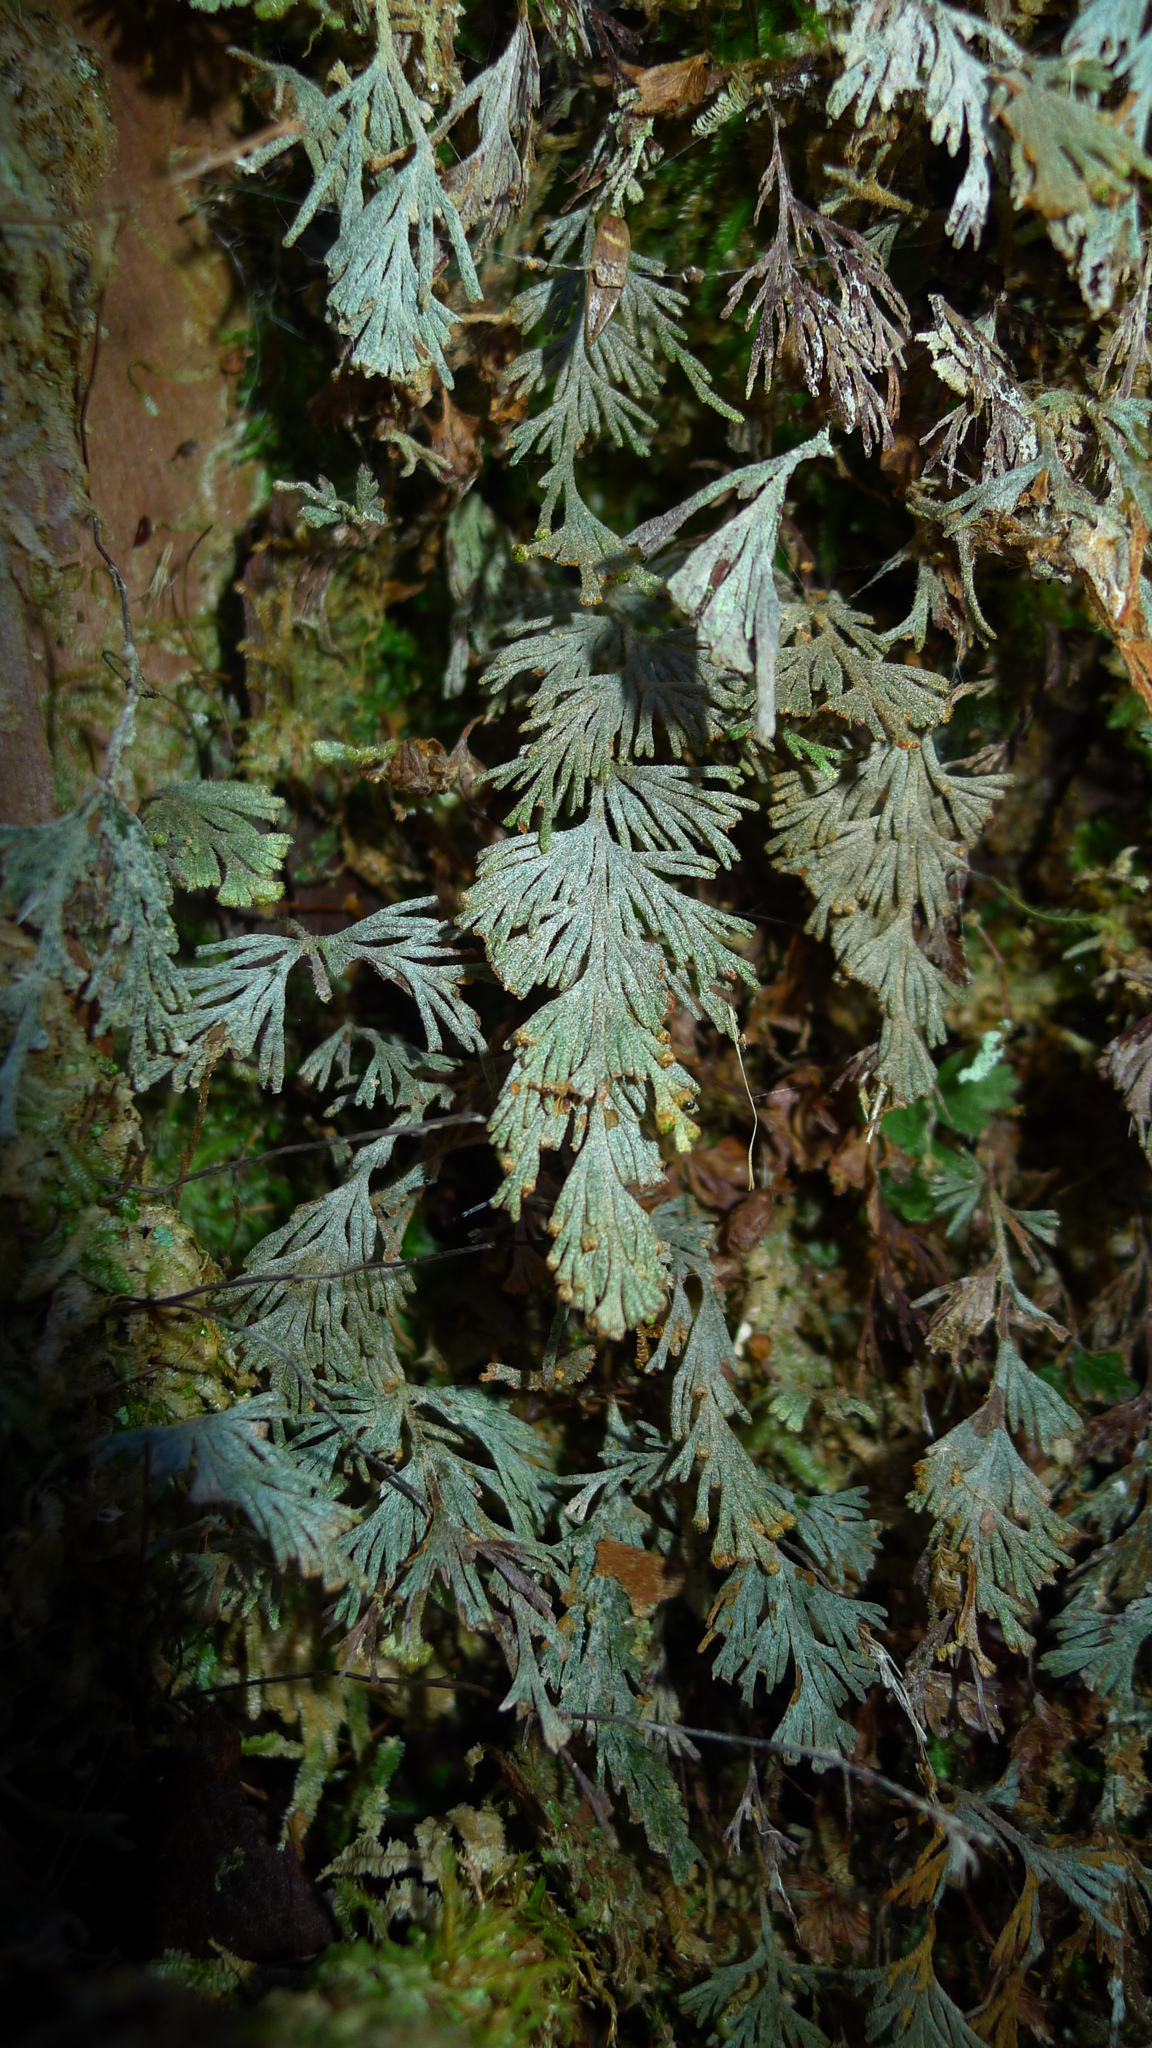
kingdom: Plantae
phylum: Tracheophyta
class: Polypodiopsida
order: Hymenophyllales
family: Hymenophyllaceae
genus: Hymenophyllum
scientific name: Hymenophyllum malingii
